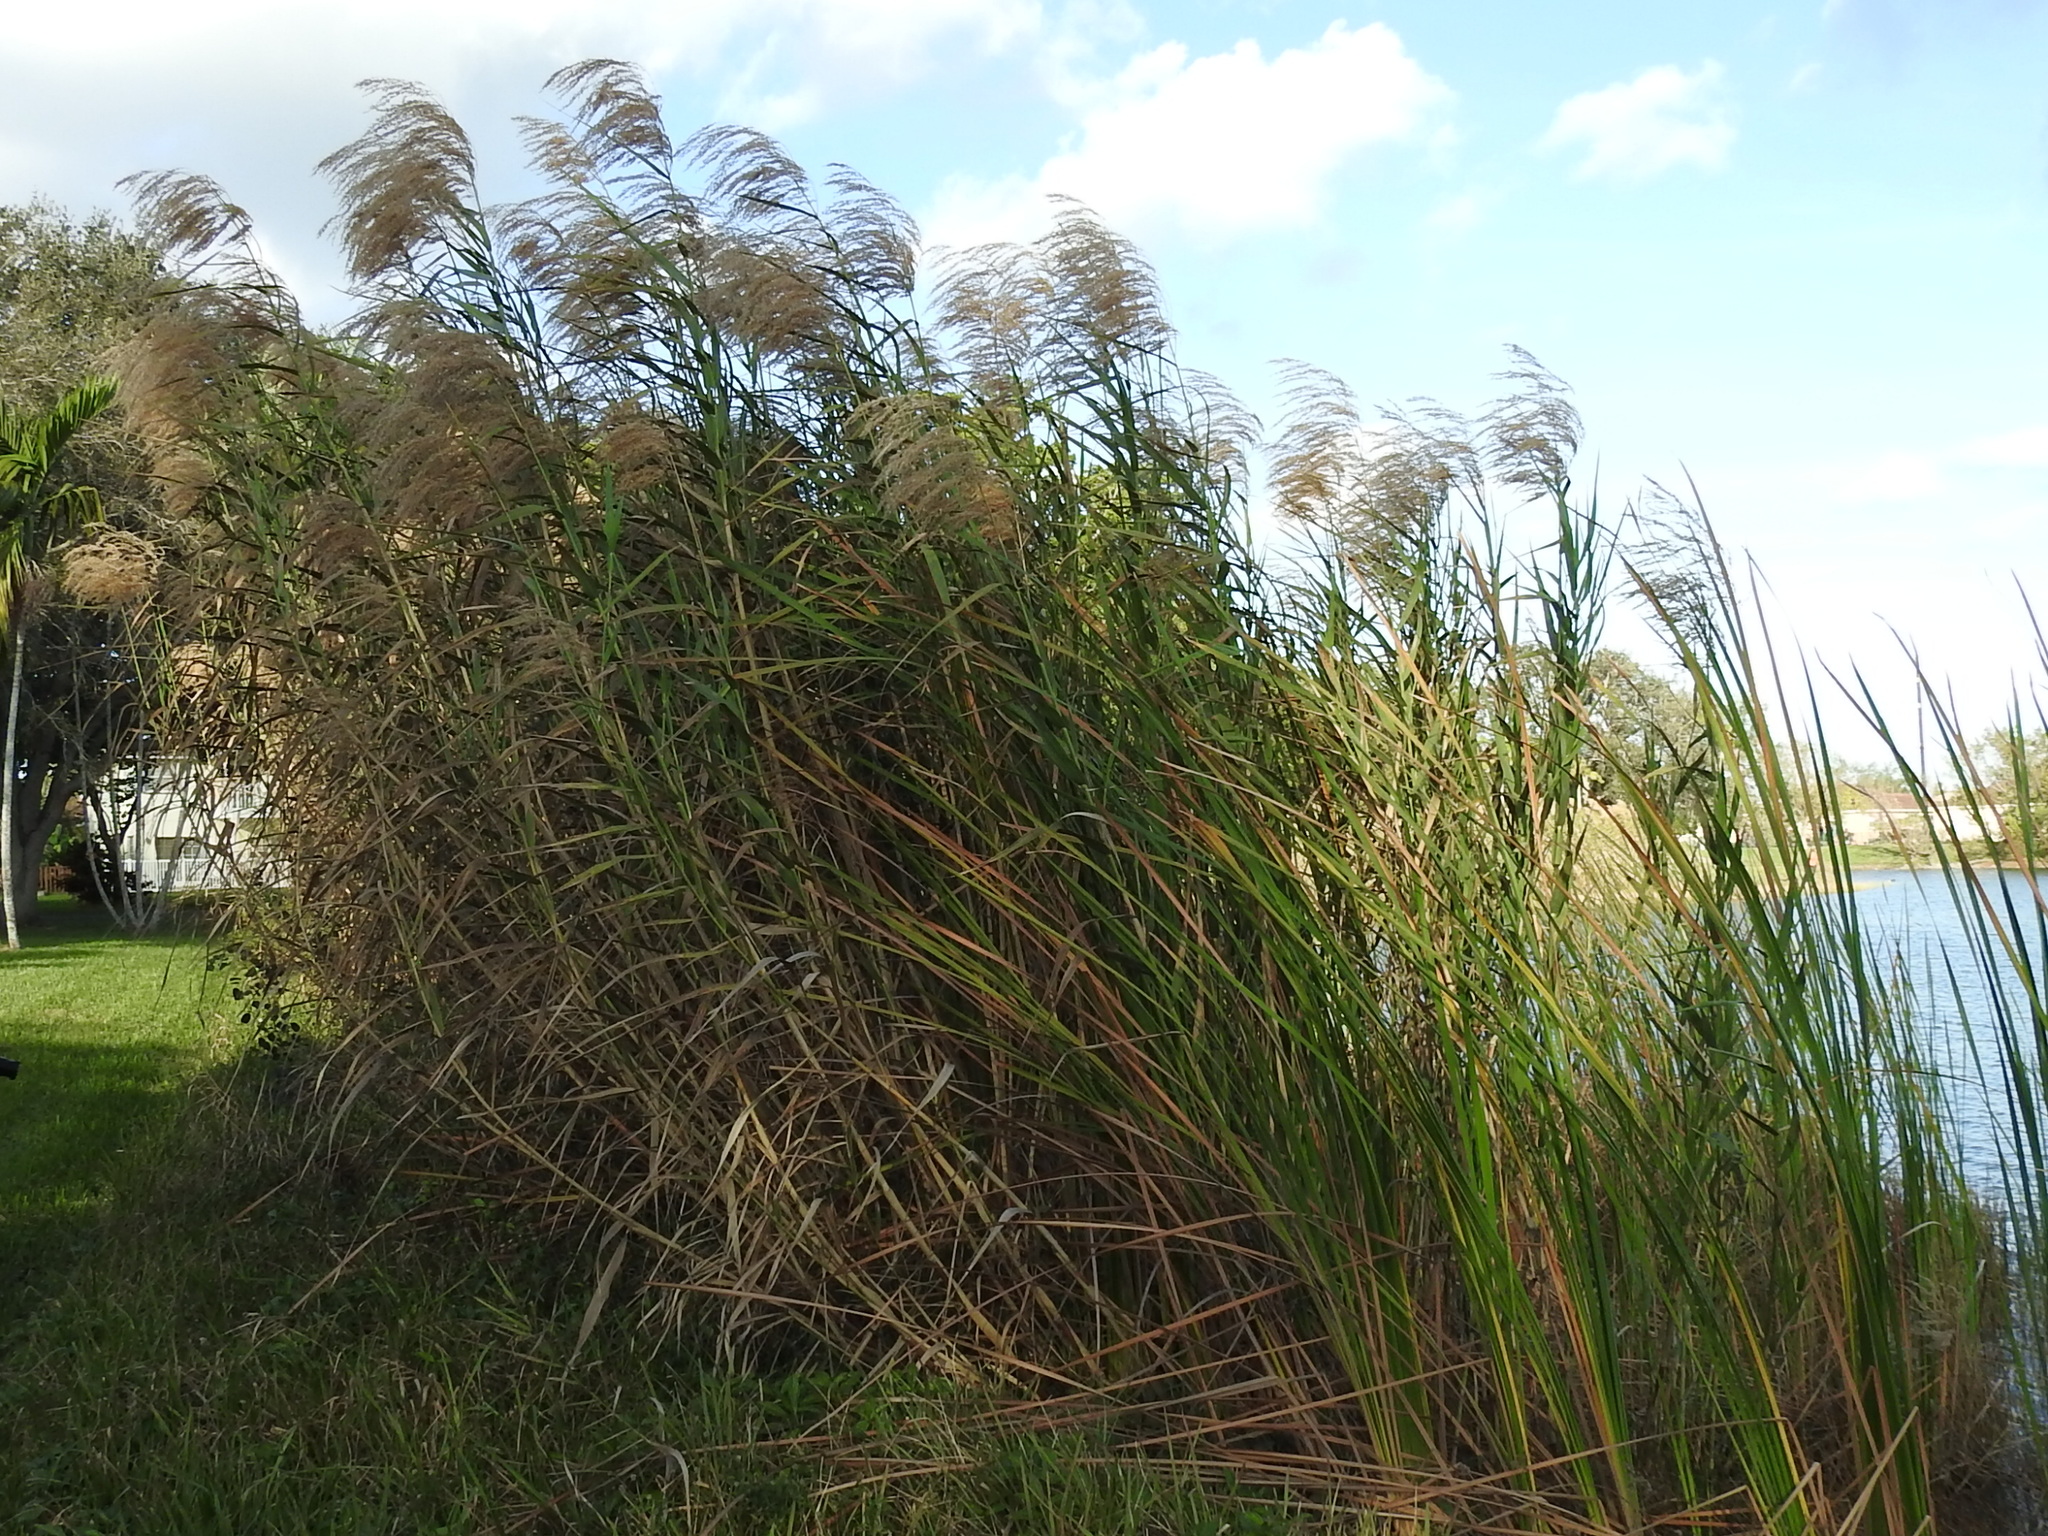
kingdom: Plantae
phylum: Tracheophyta
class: Liliopsida
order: Poales
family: Poaceae
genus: Phragmites
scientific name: Phragmites australis
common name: Common reed
